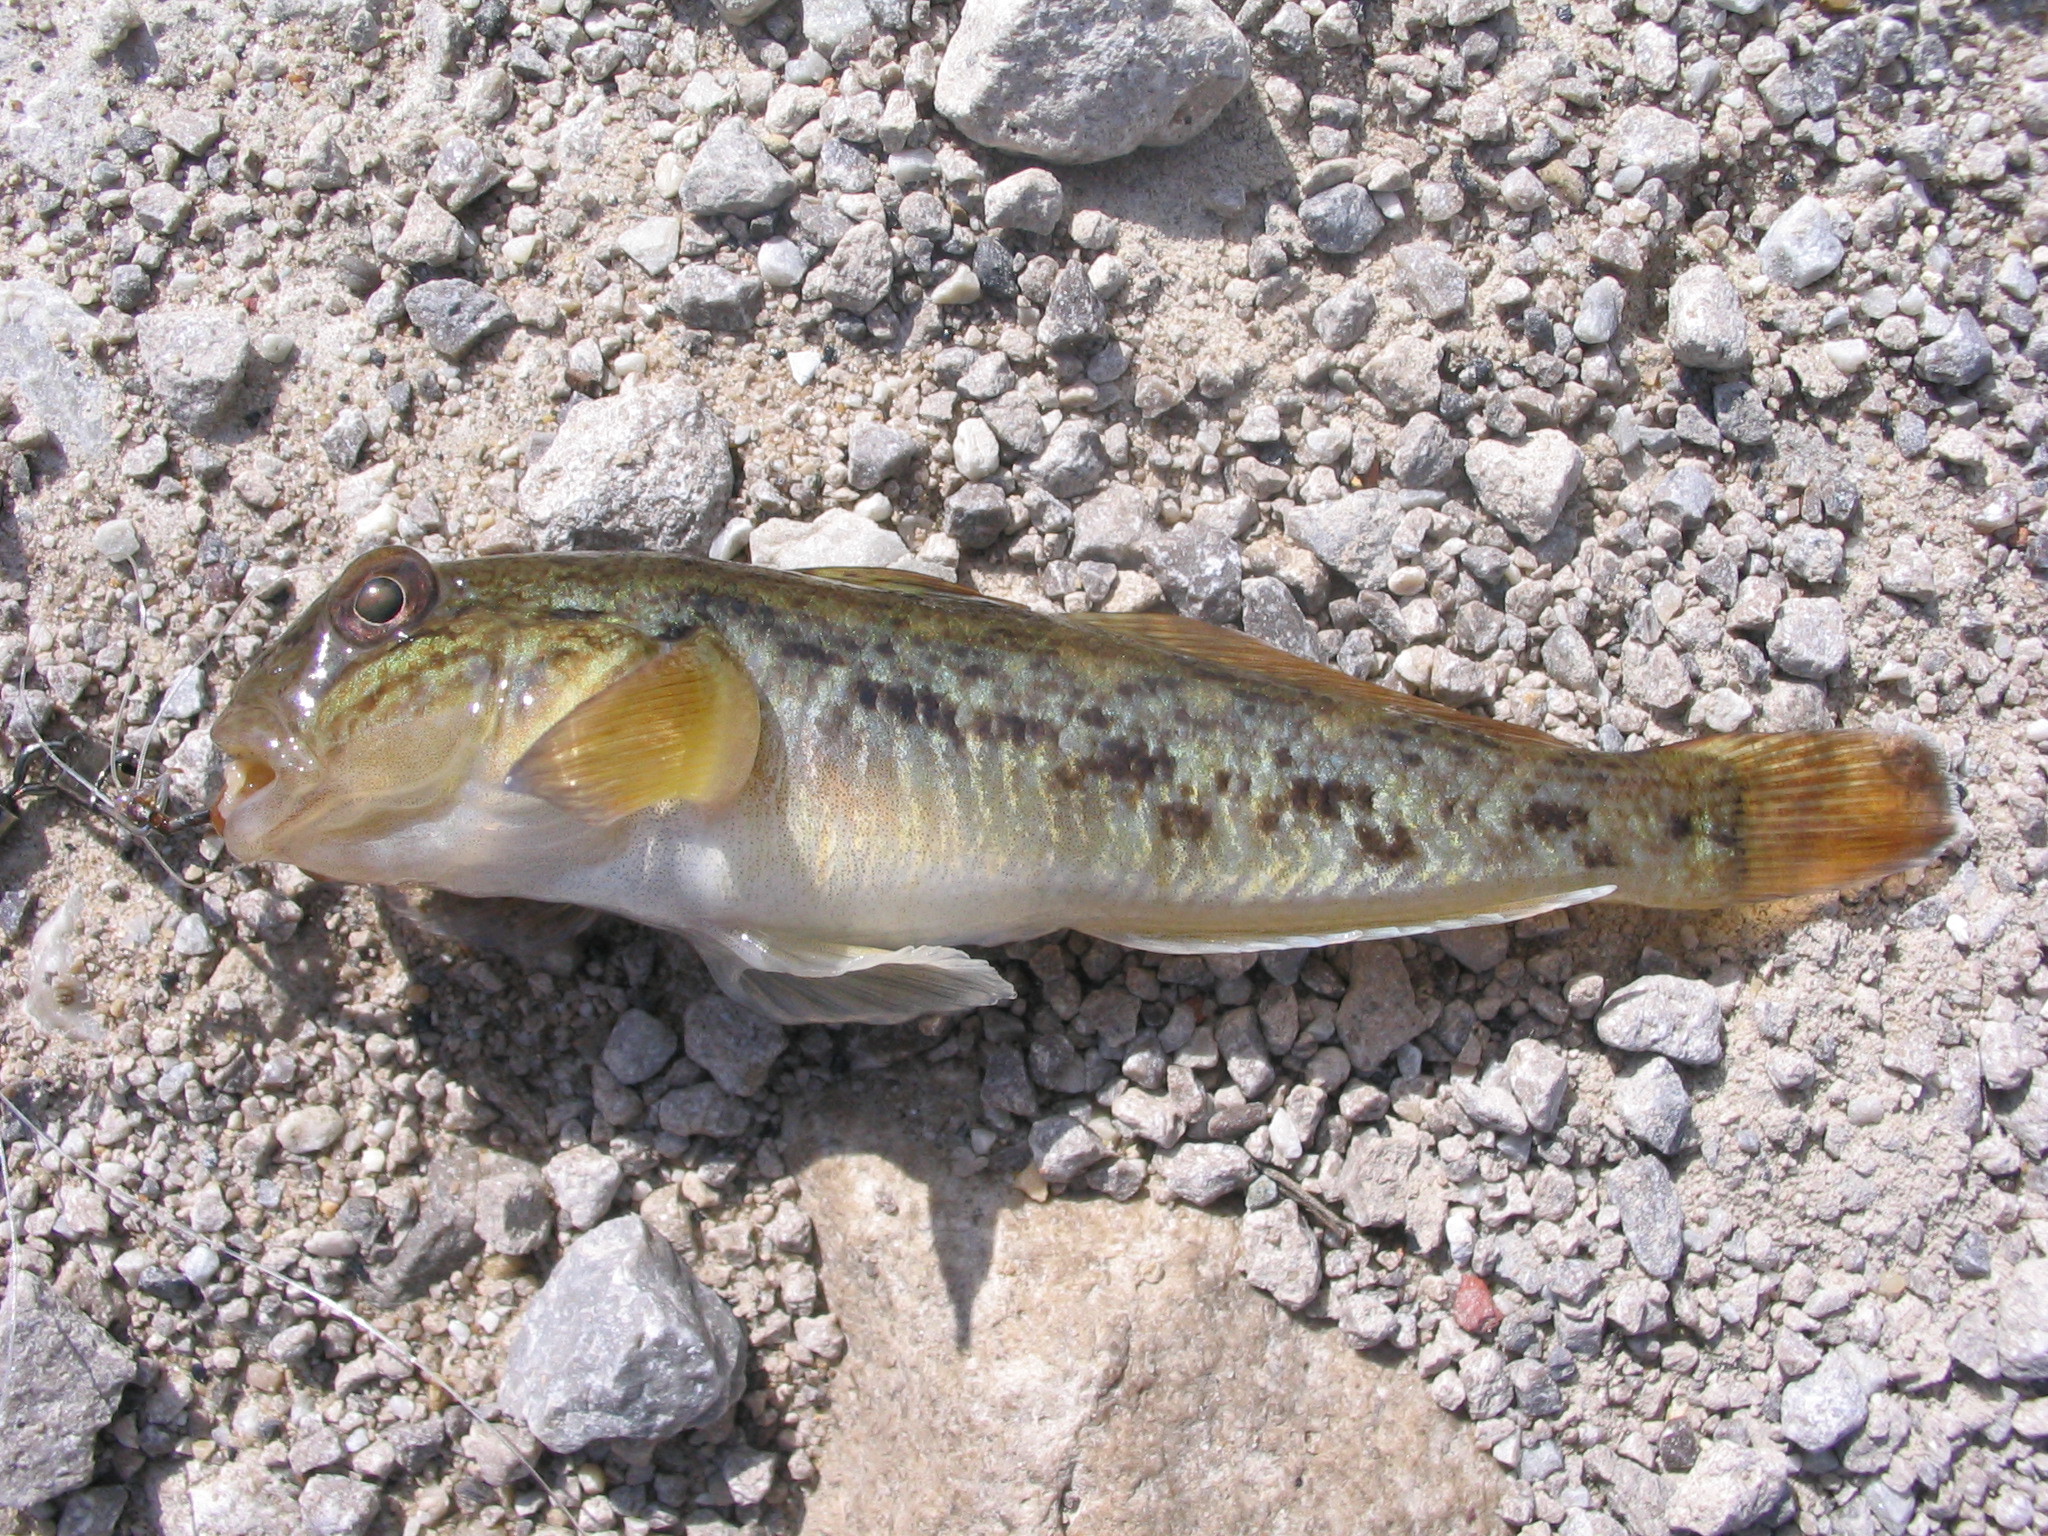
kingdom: Animalia
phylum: Chordata
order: Perciformes
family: Gobiidae
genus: Neogobius
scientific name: Neogobius melanostomus
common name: Round goby
